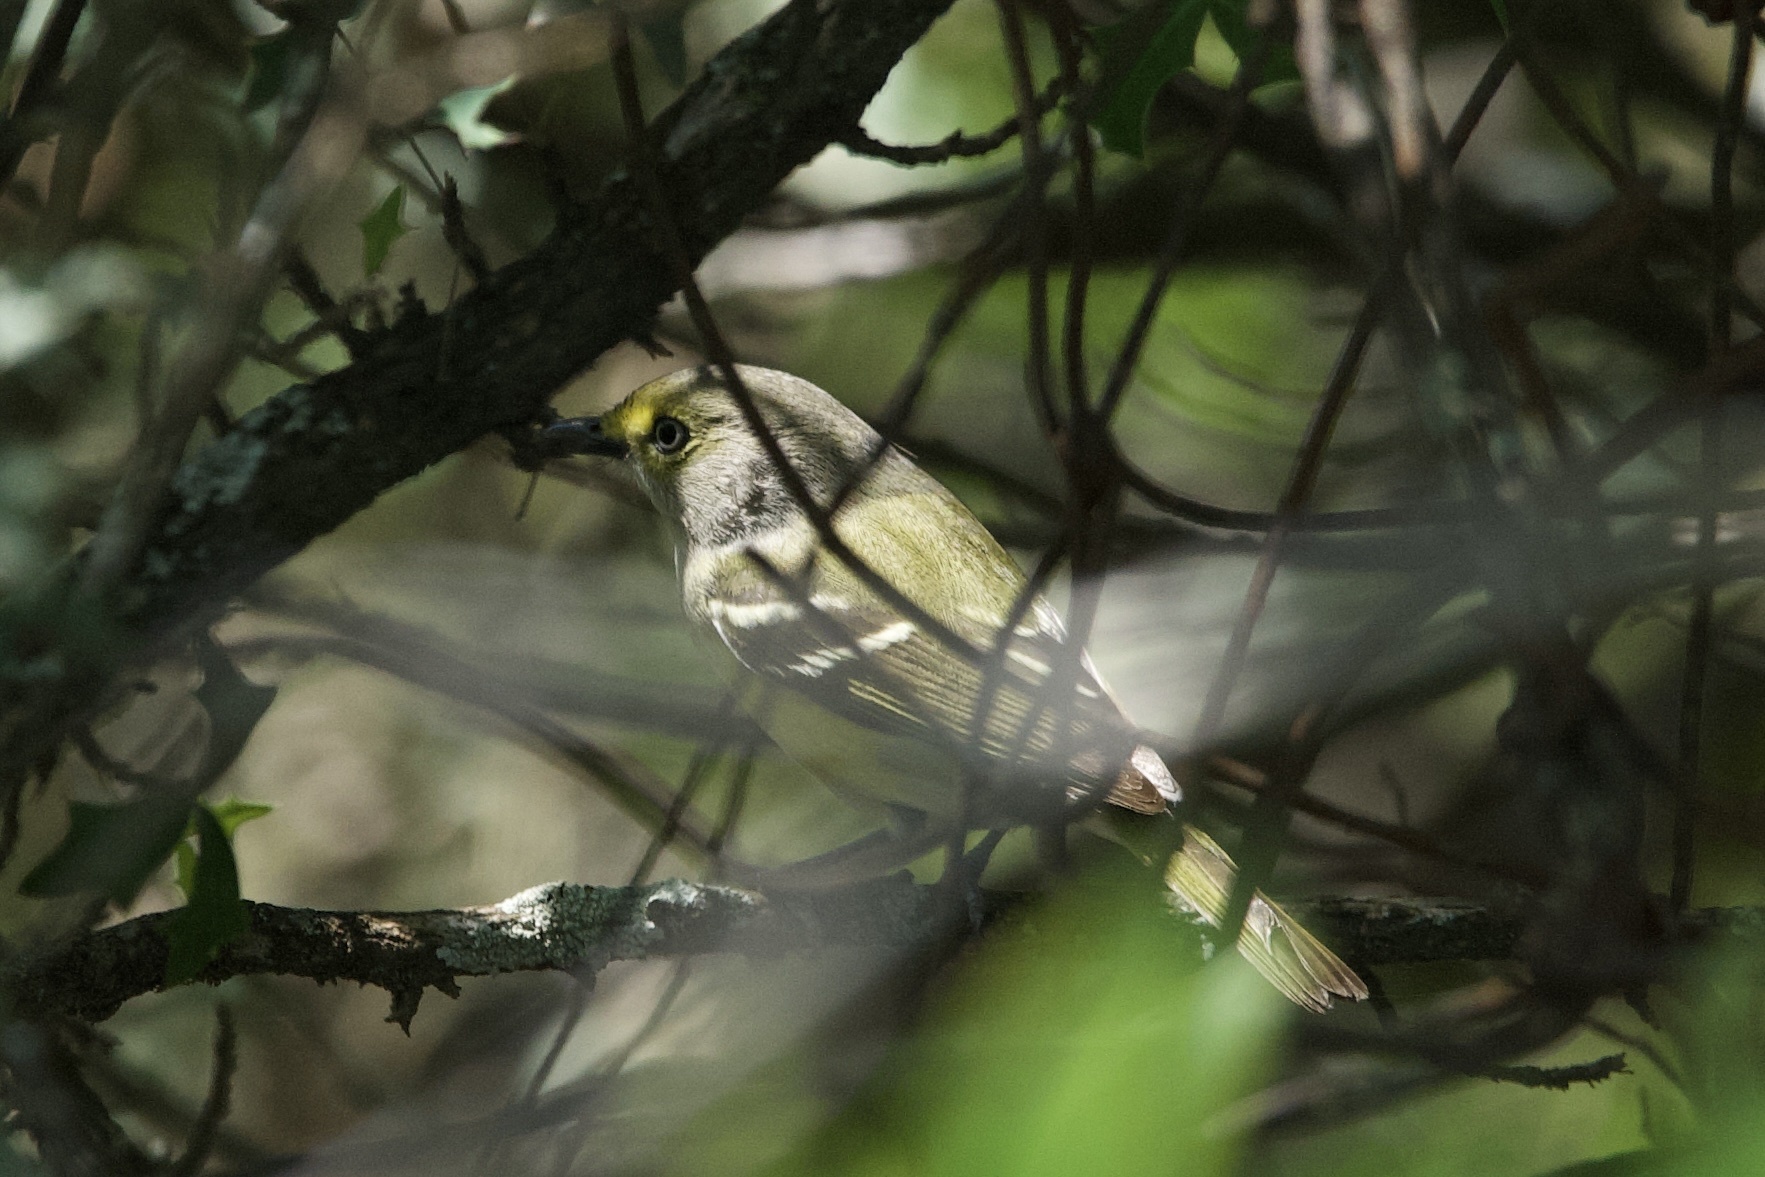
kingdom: Animalia
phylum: Chordata
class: Aves
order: Passeriformes
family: Vireonidae
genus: Vireo
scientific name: Vireo griseus
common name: White-eyed vireo
